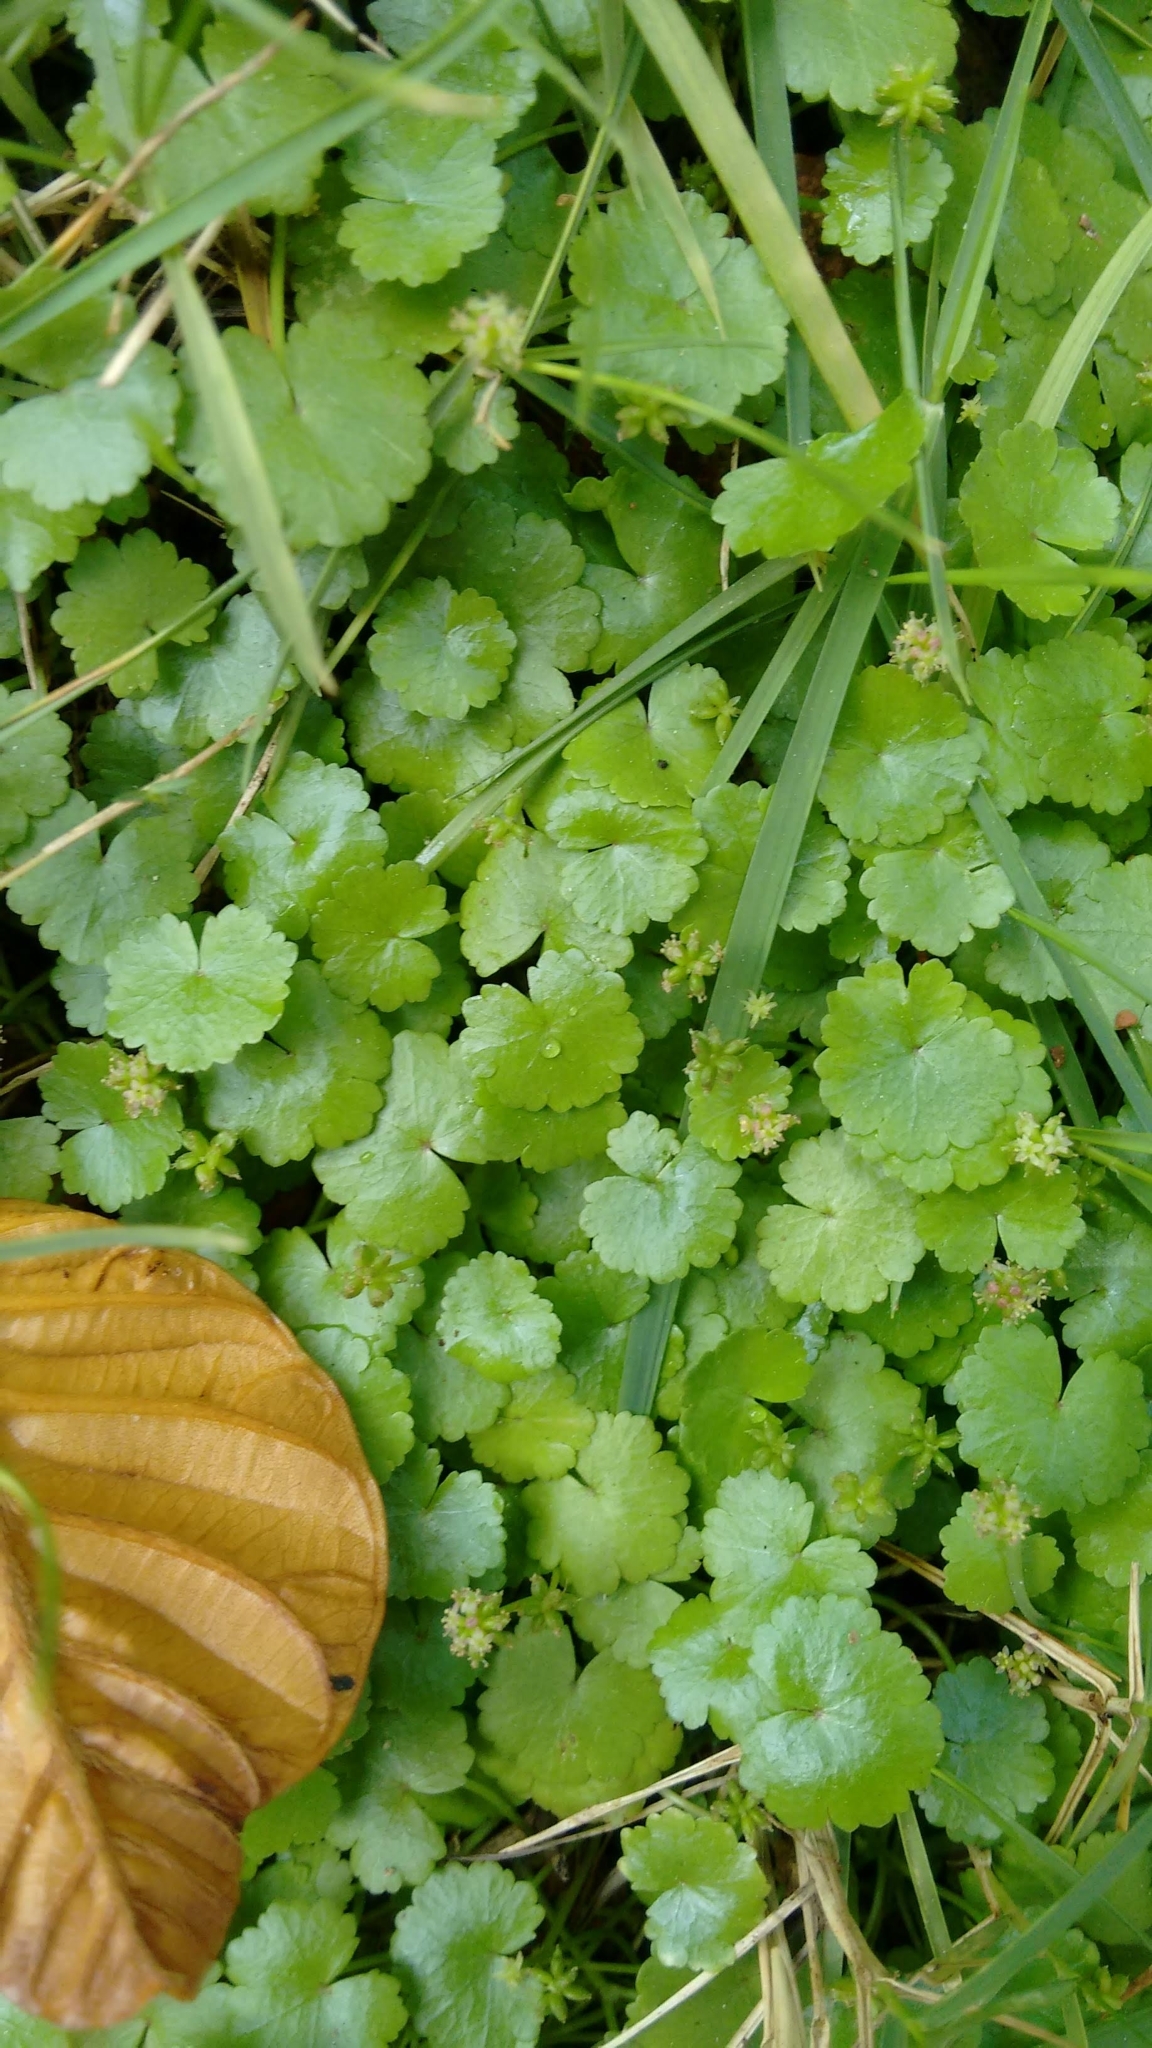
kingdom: Plantae
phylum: Tracheophyta
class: Magnoliopsida
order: Apiales
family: Araliaceae
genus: Hydrocotyle
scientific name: Hydrocotyle sibthorpioides
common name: Lawn marshpennywort
